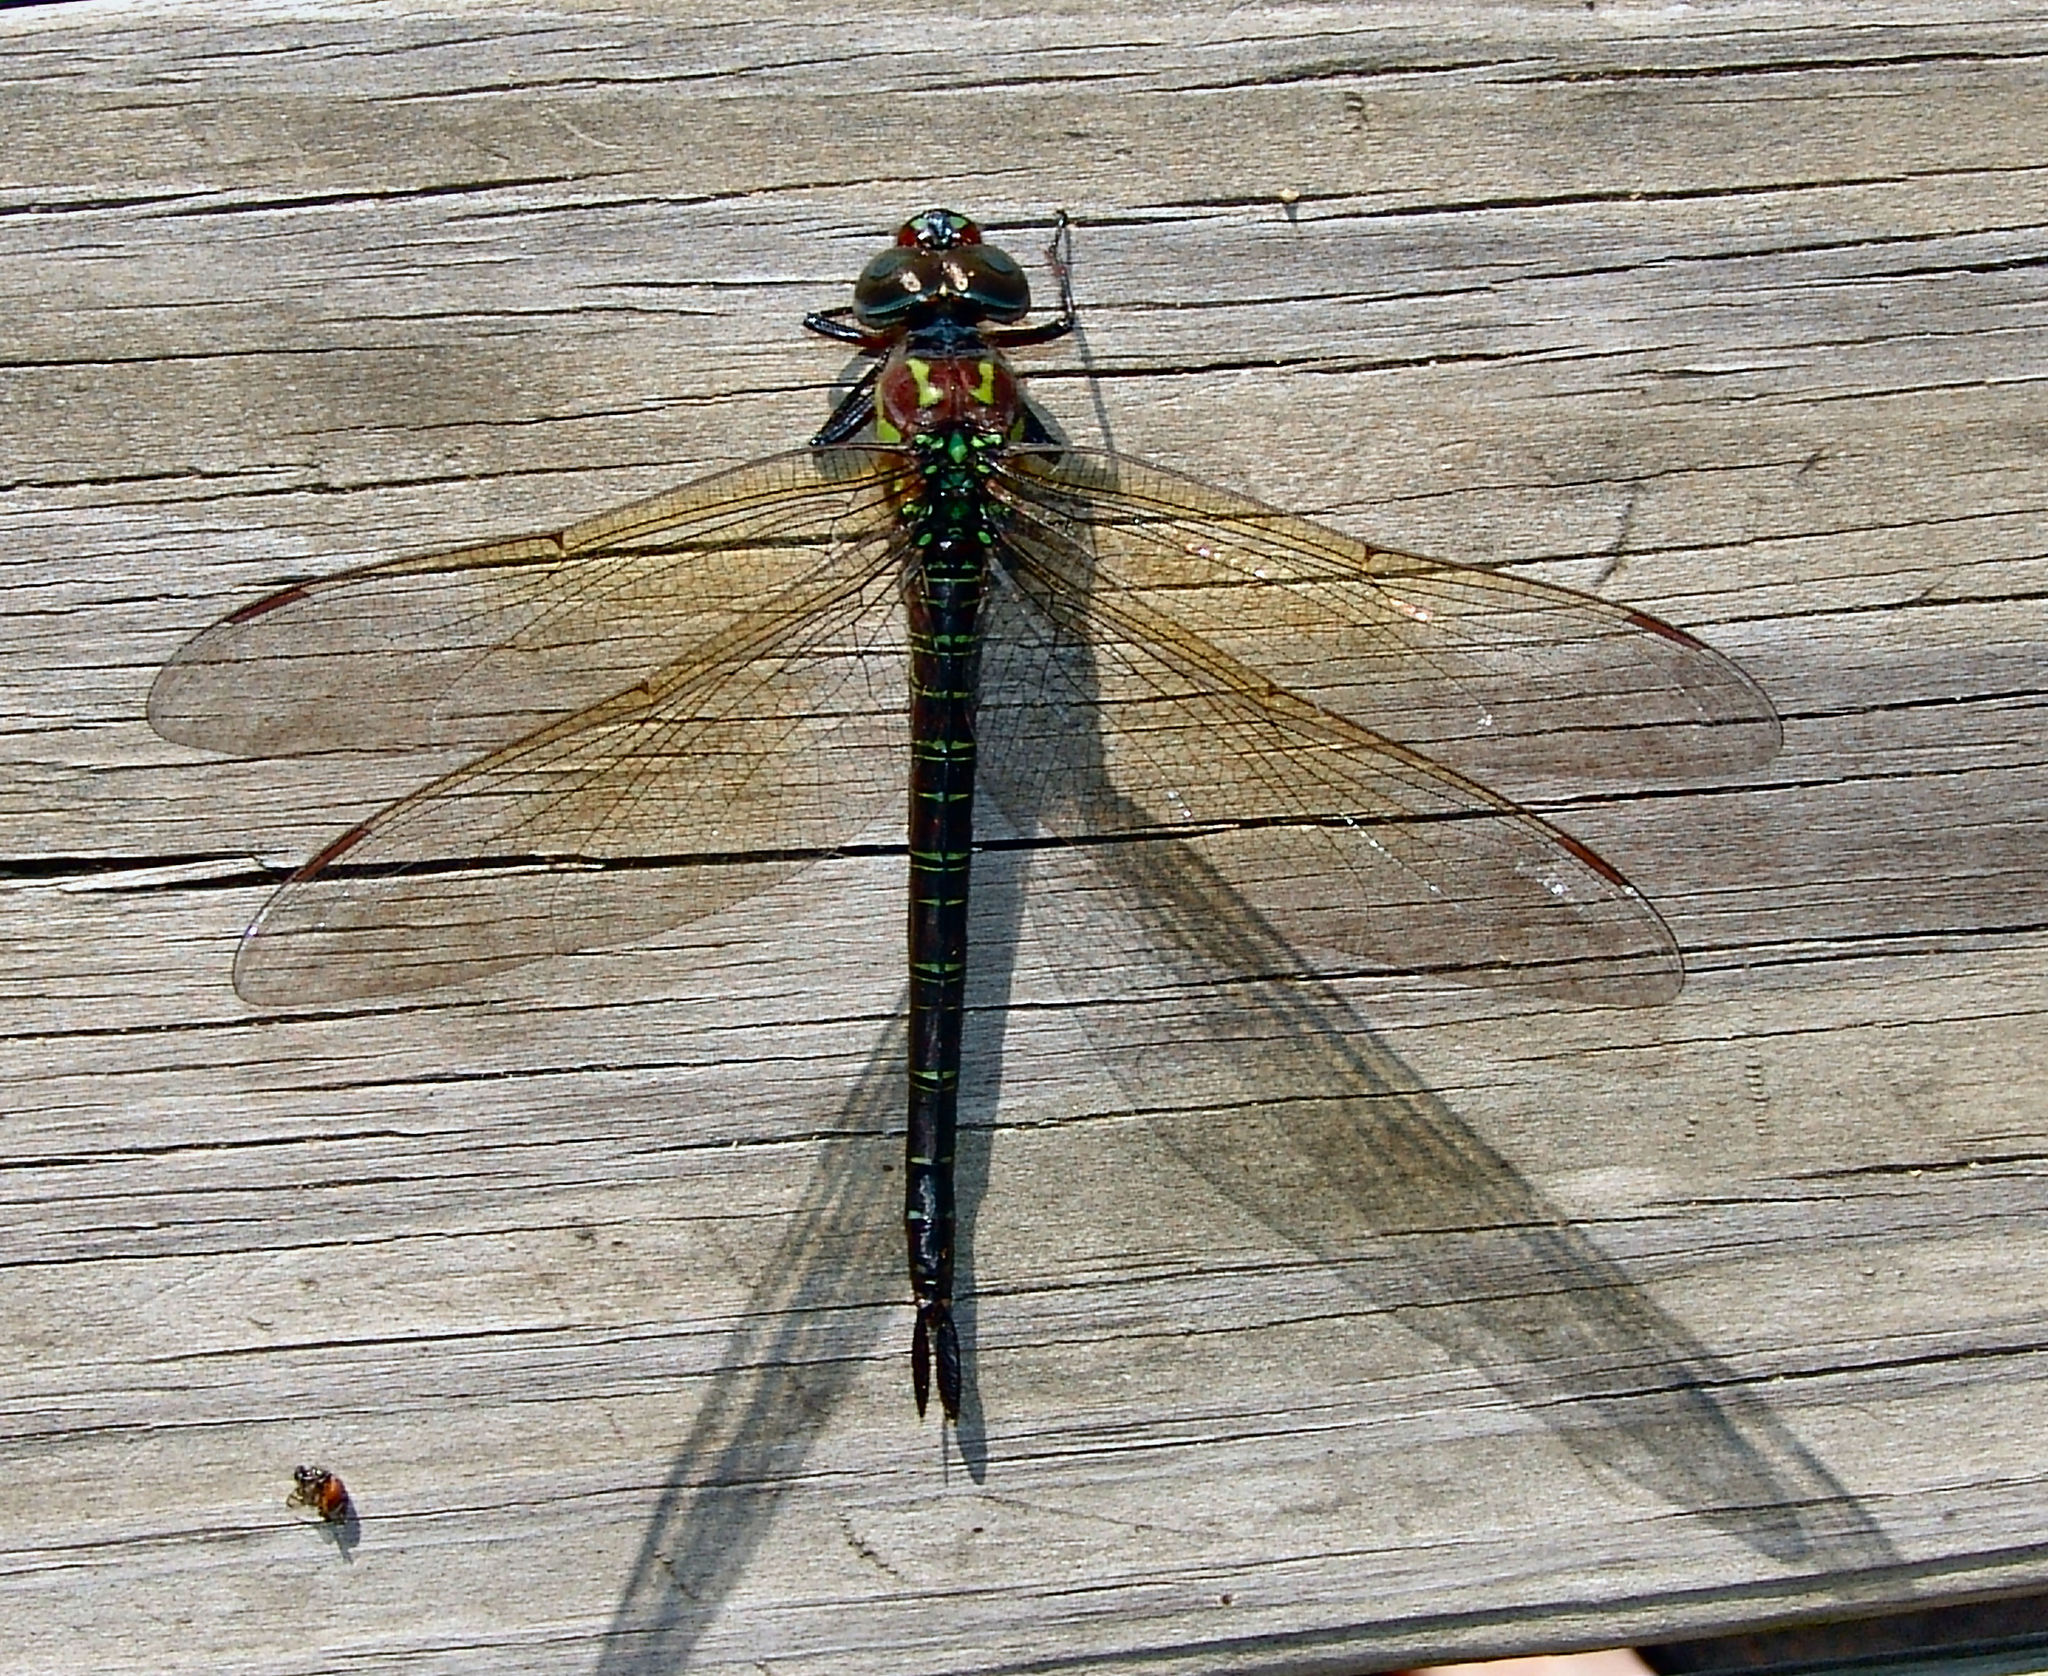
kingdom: Animalia
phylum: Arthropoda
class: Insecta
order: Odonata
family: Aeshnidae
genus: Epiaeschna
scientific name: Epiaeschna heros
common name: Swamp darner
